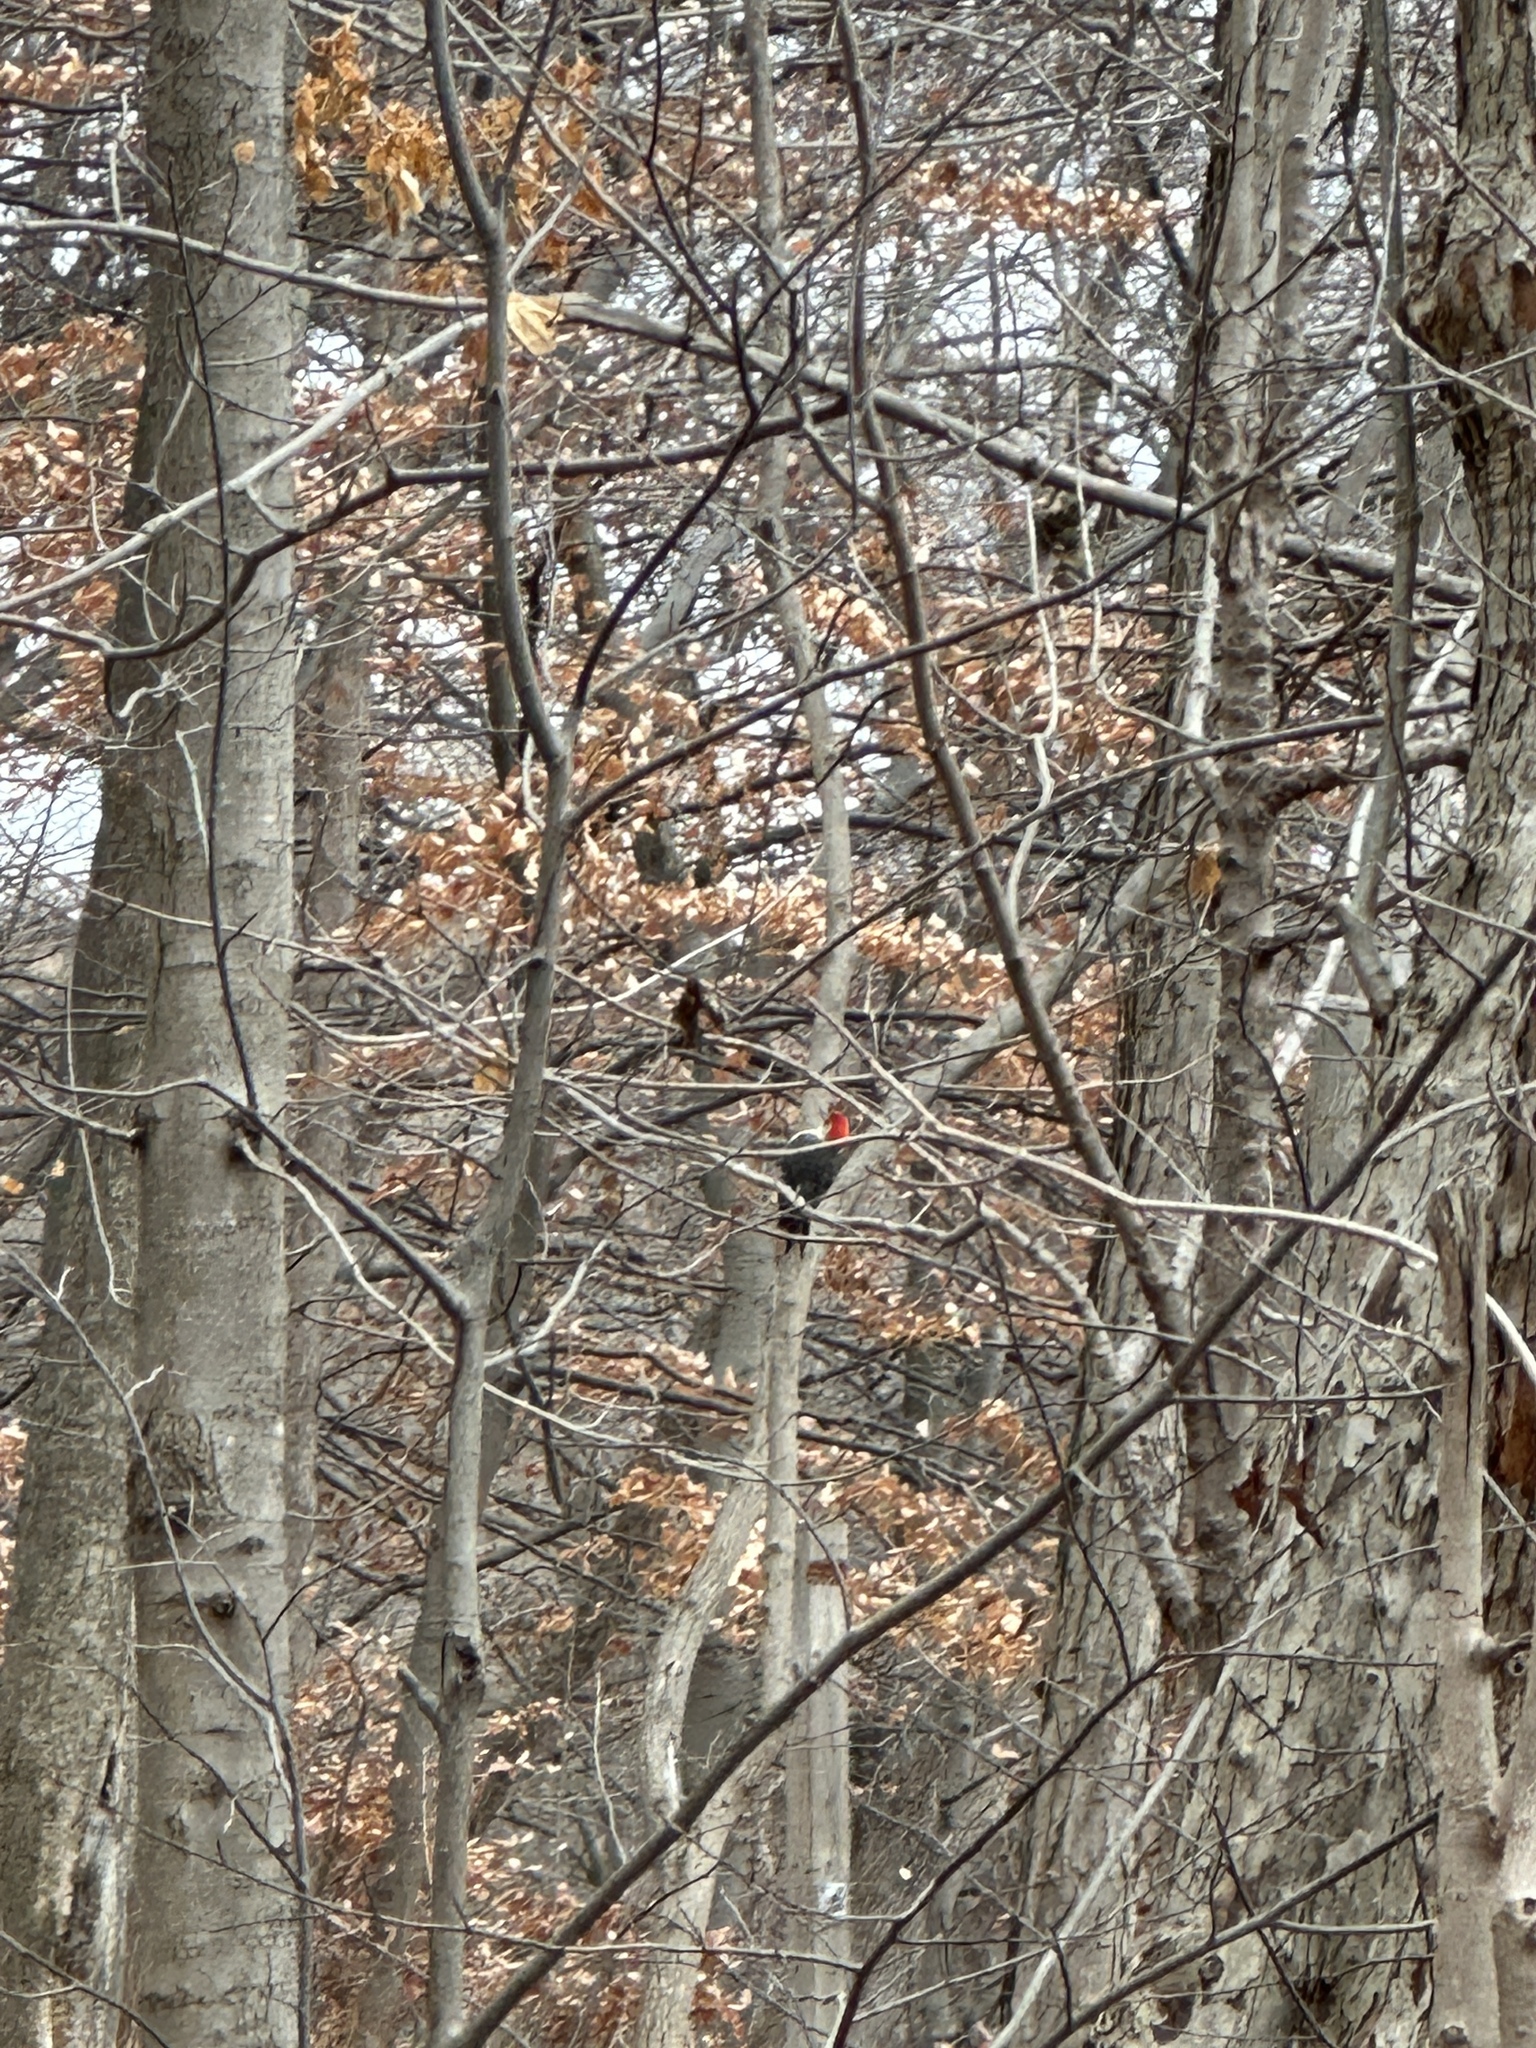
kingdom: Animalia
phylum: Chordata
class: Aves
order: Piciformes
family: Picidae
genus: Melanerpes
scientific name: Melanerpes carolinus
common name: Red-bellied woodpecker
